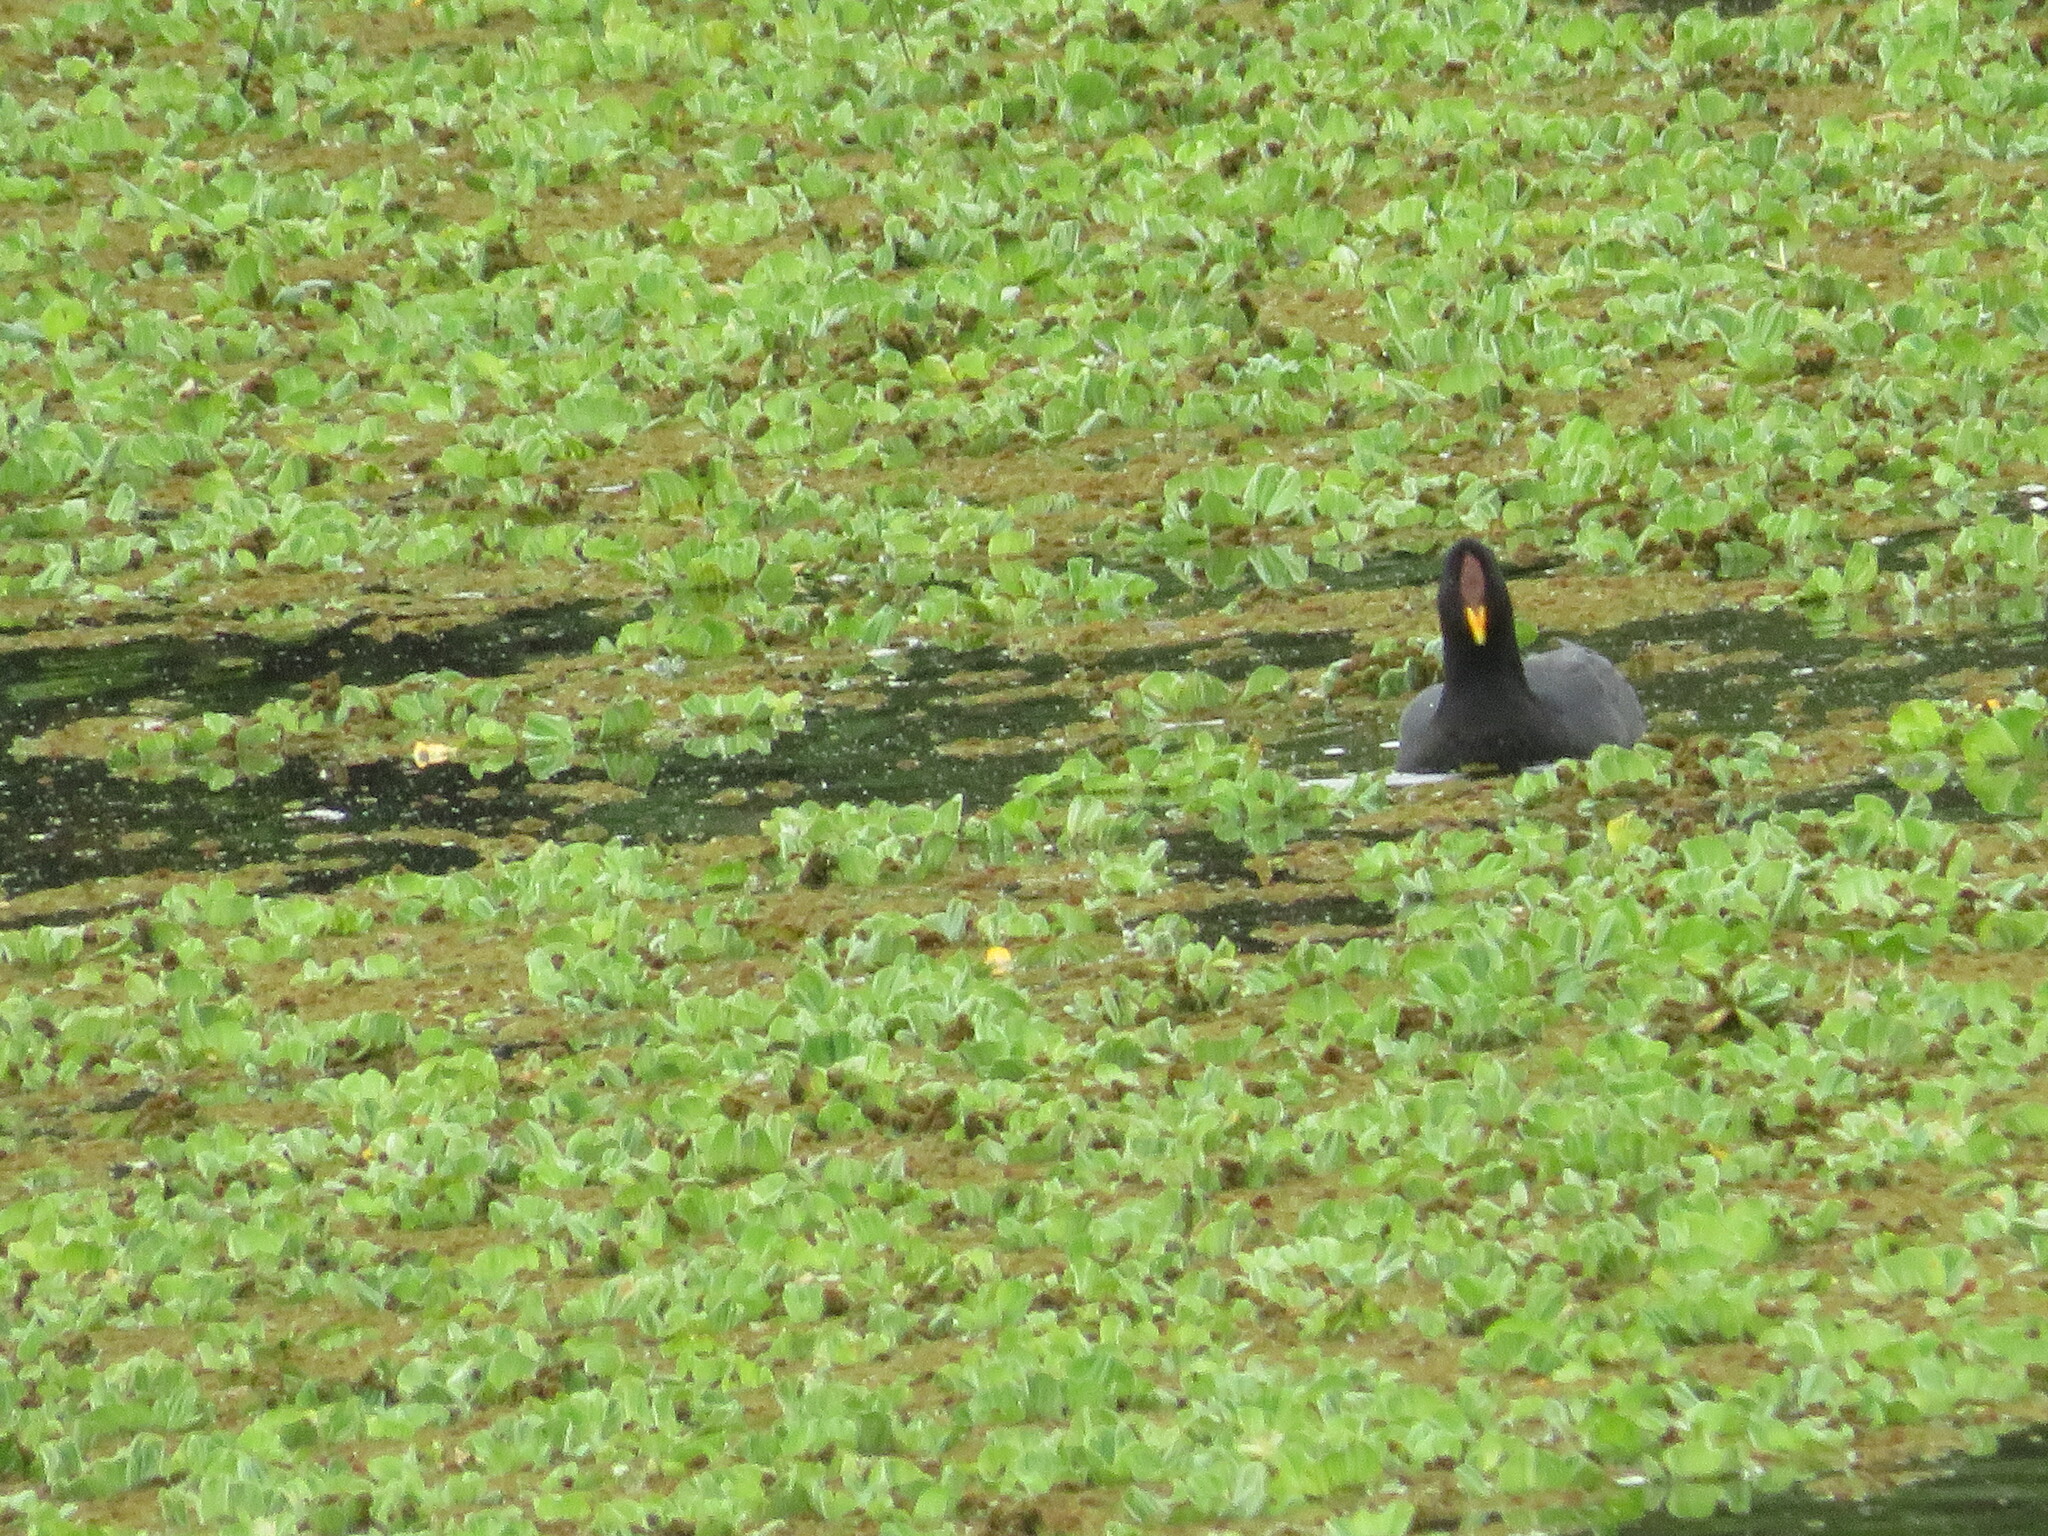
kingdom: Animalia
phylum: Chordata
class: Aves
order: Gruiformes
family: Rallidae
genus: Fulica
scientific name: Fulica rufifrons
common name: Red-fronted coot
